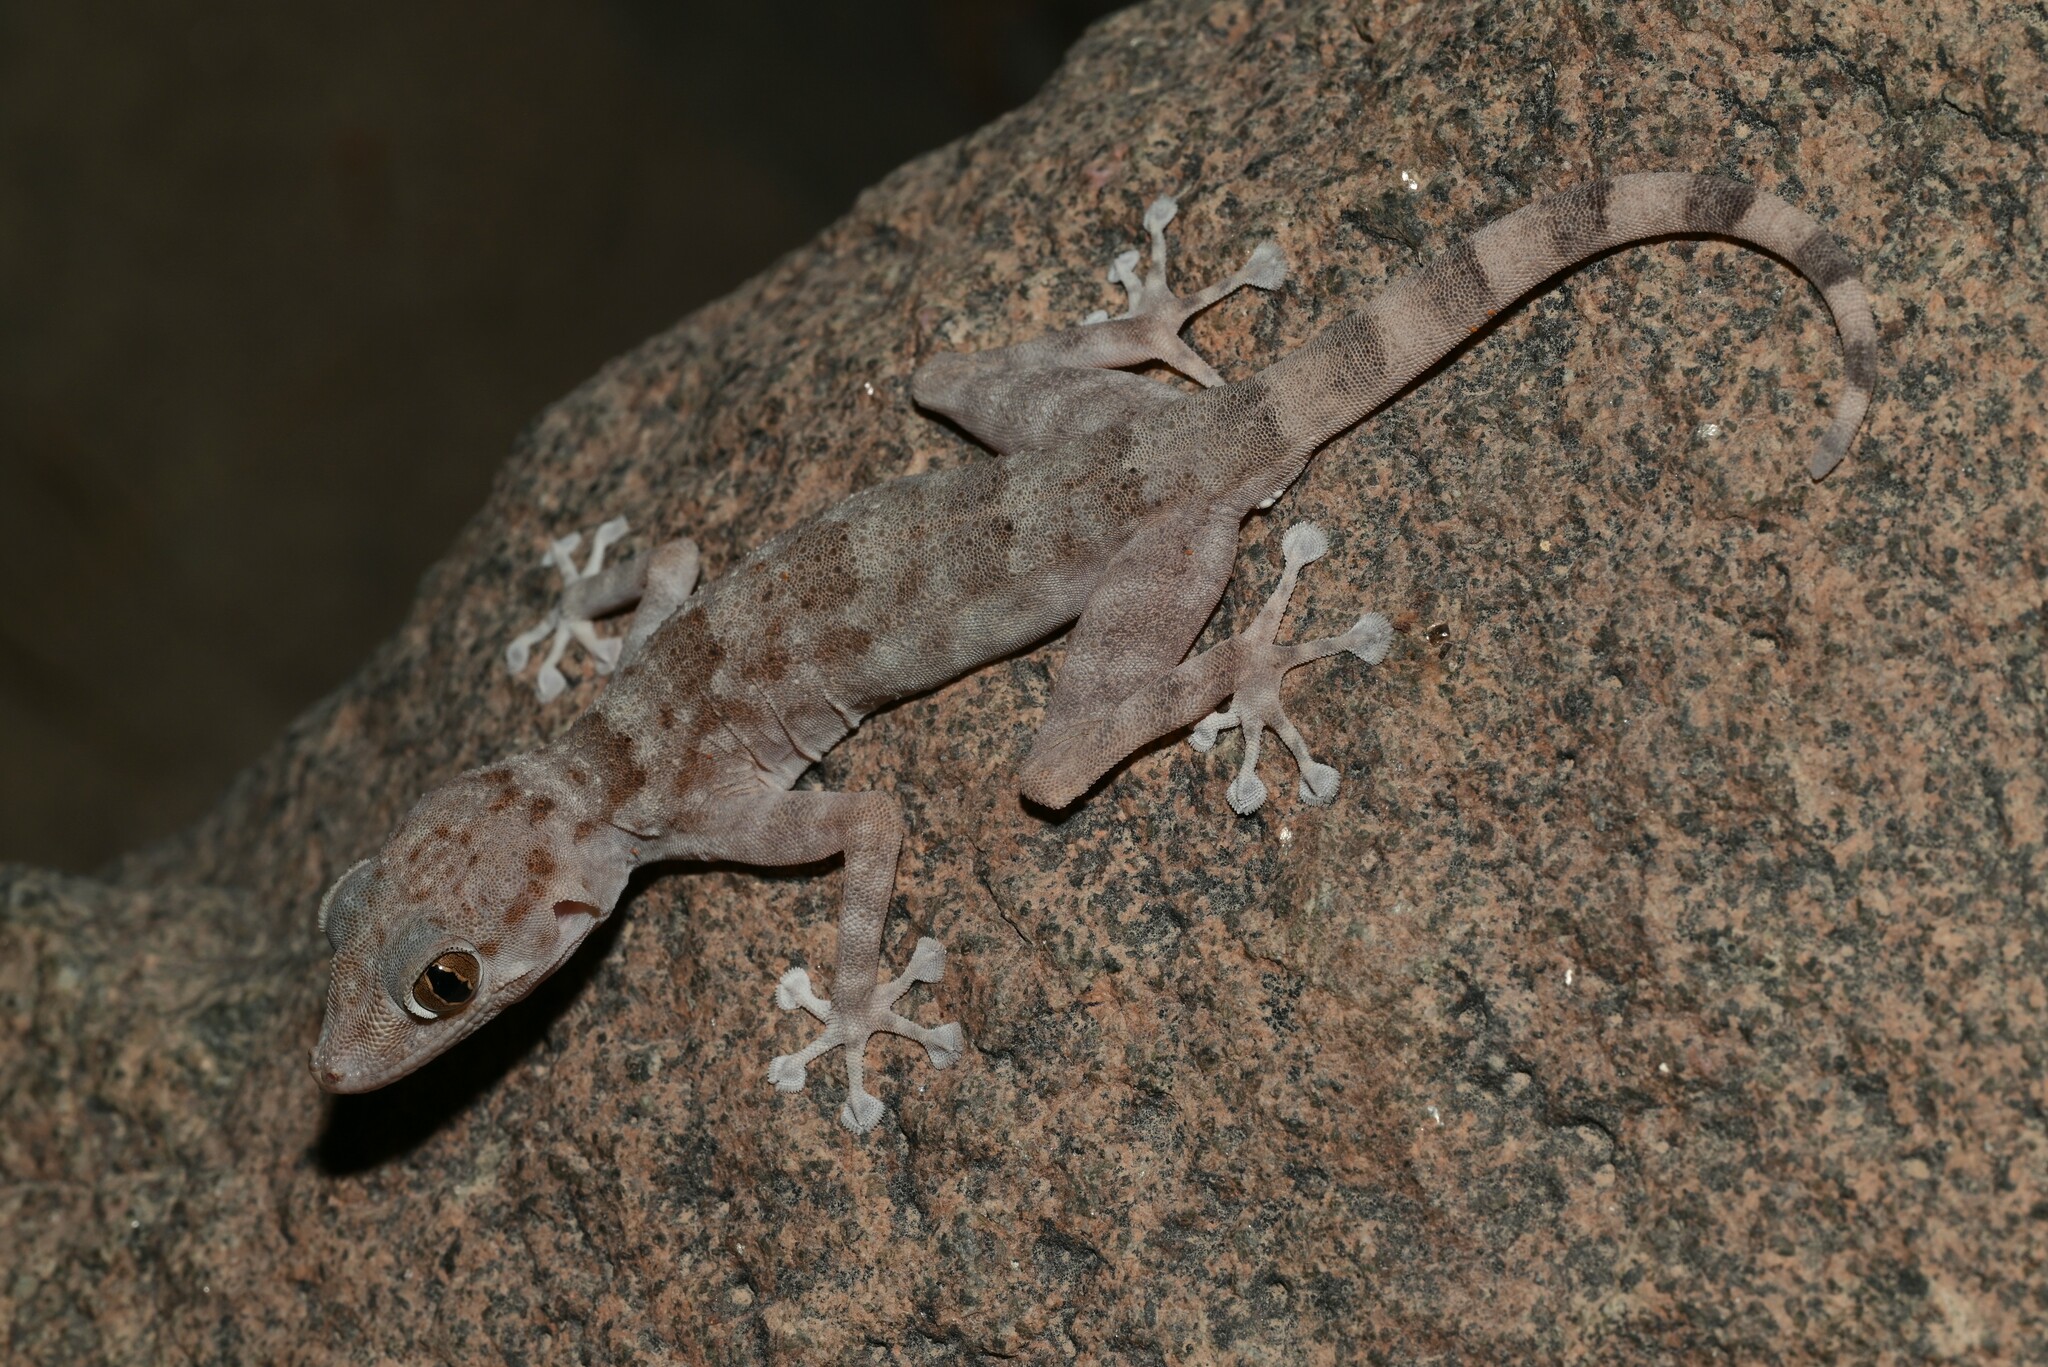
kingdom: Animalia
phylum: Chordata
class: Squamata
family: Phyllodactylidae
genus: Ptyodactylus
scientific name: Ptyodactylus orlovi
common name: Orlov's fan-footed gecko
